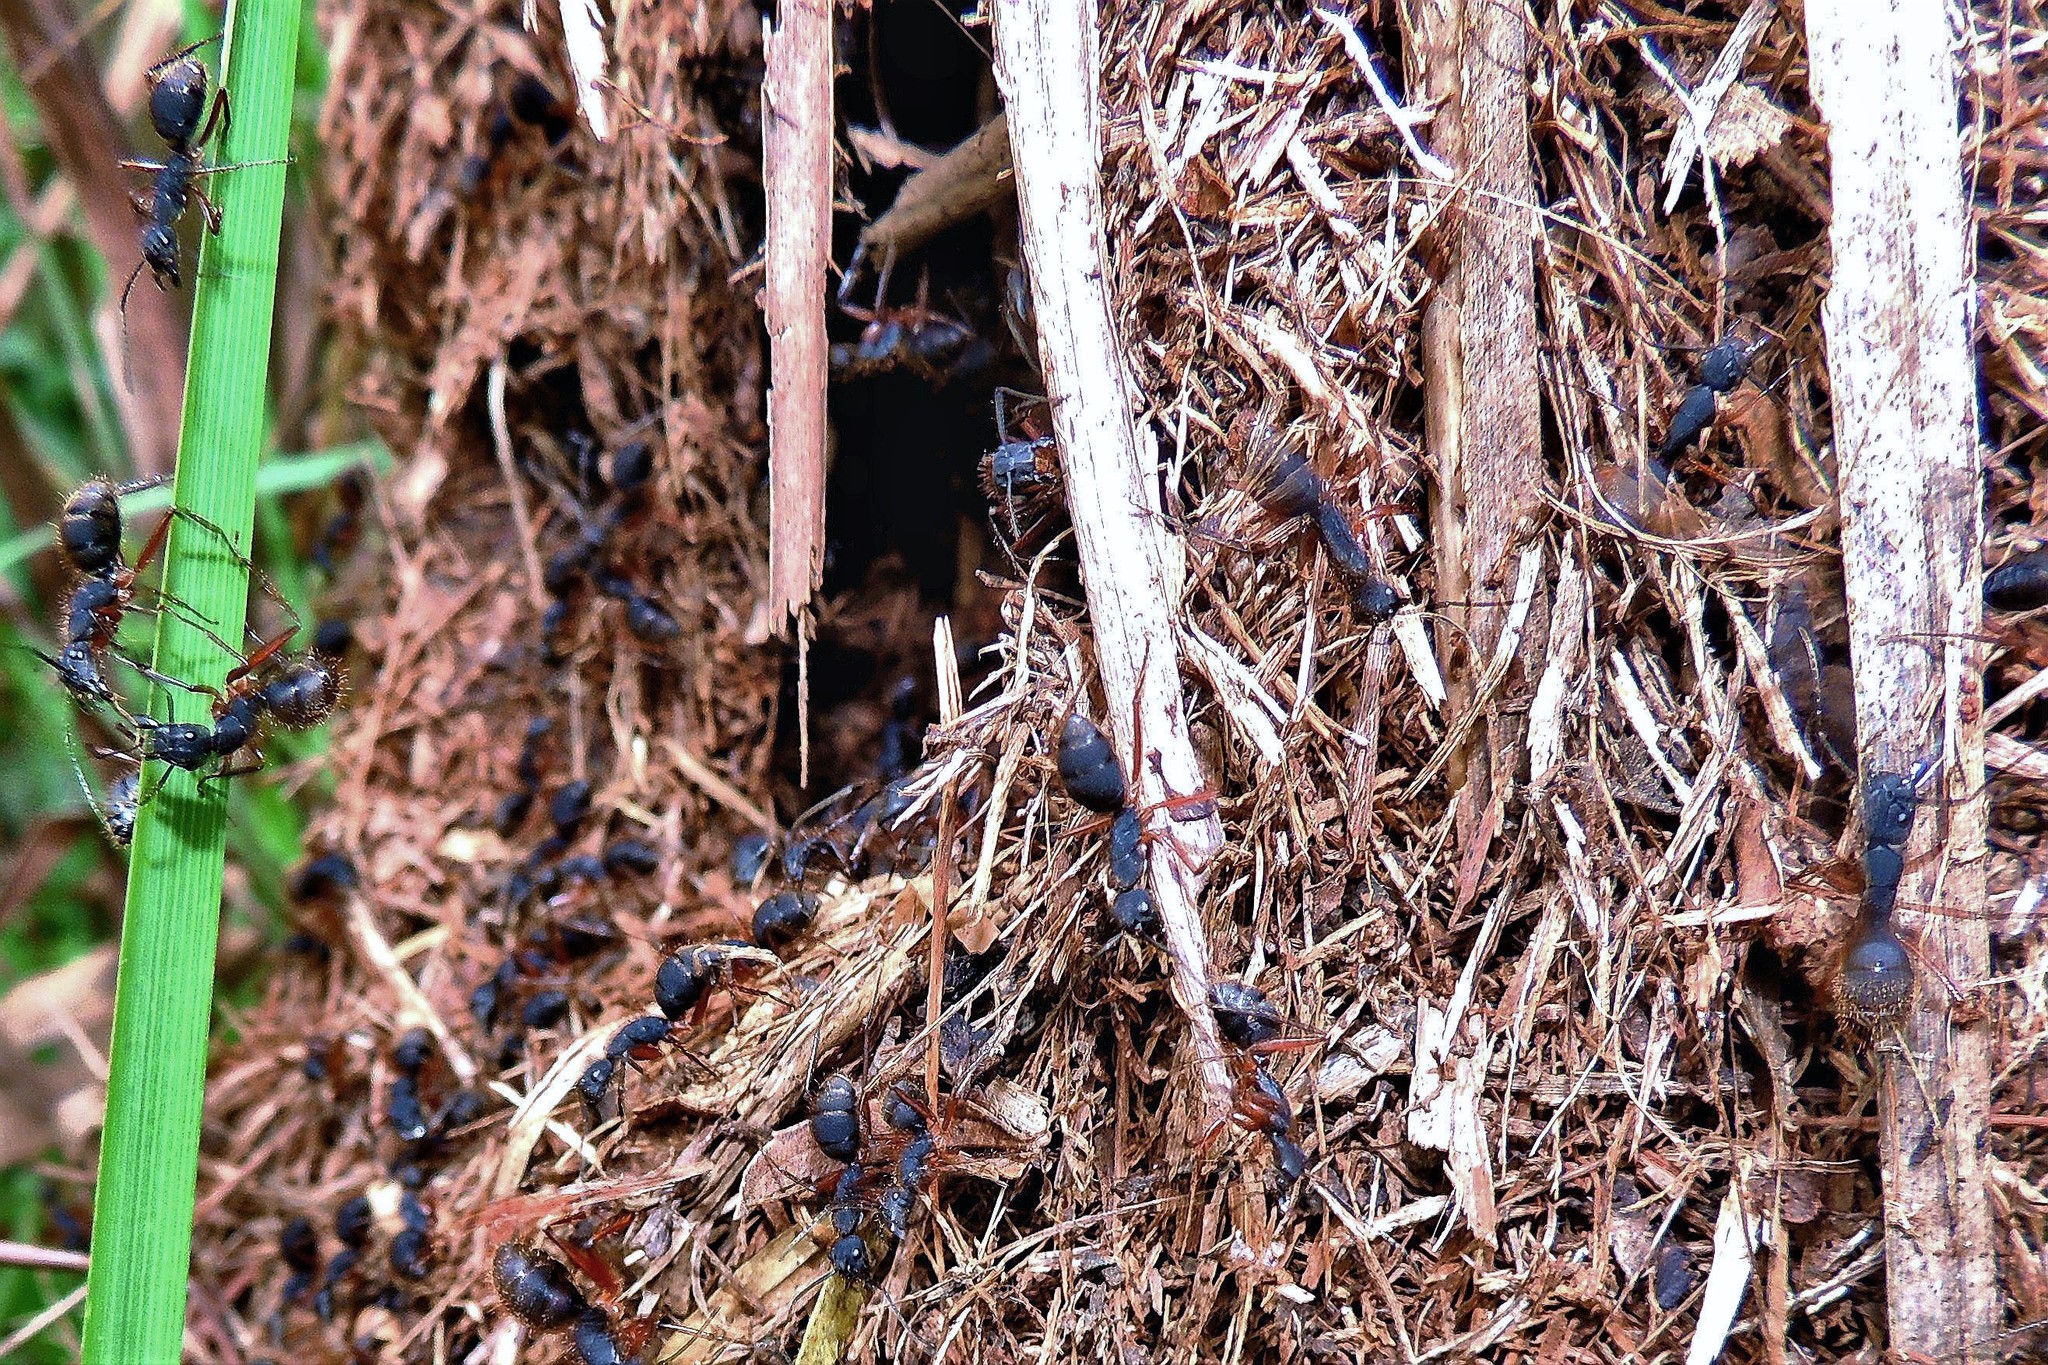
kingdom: Animalia
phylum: Arthropoda
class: Insecta
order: Hymenoptera
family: Formicidae
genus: Camponotus
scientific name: Camponotus rufipes
